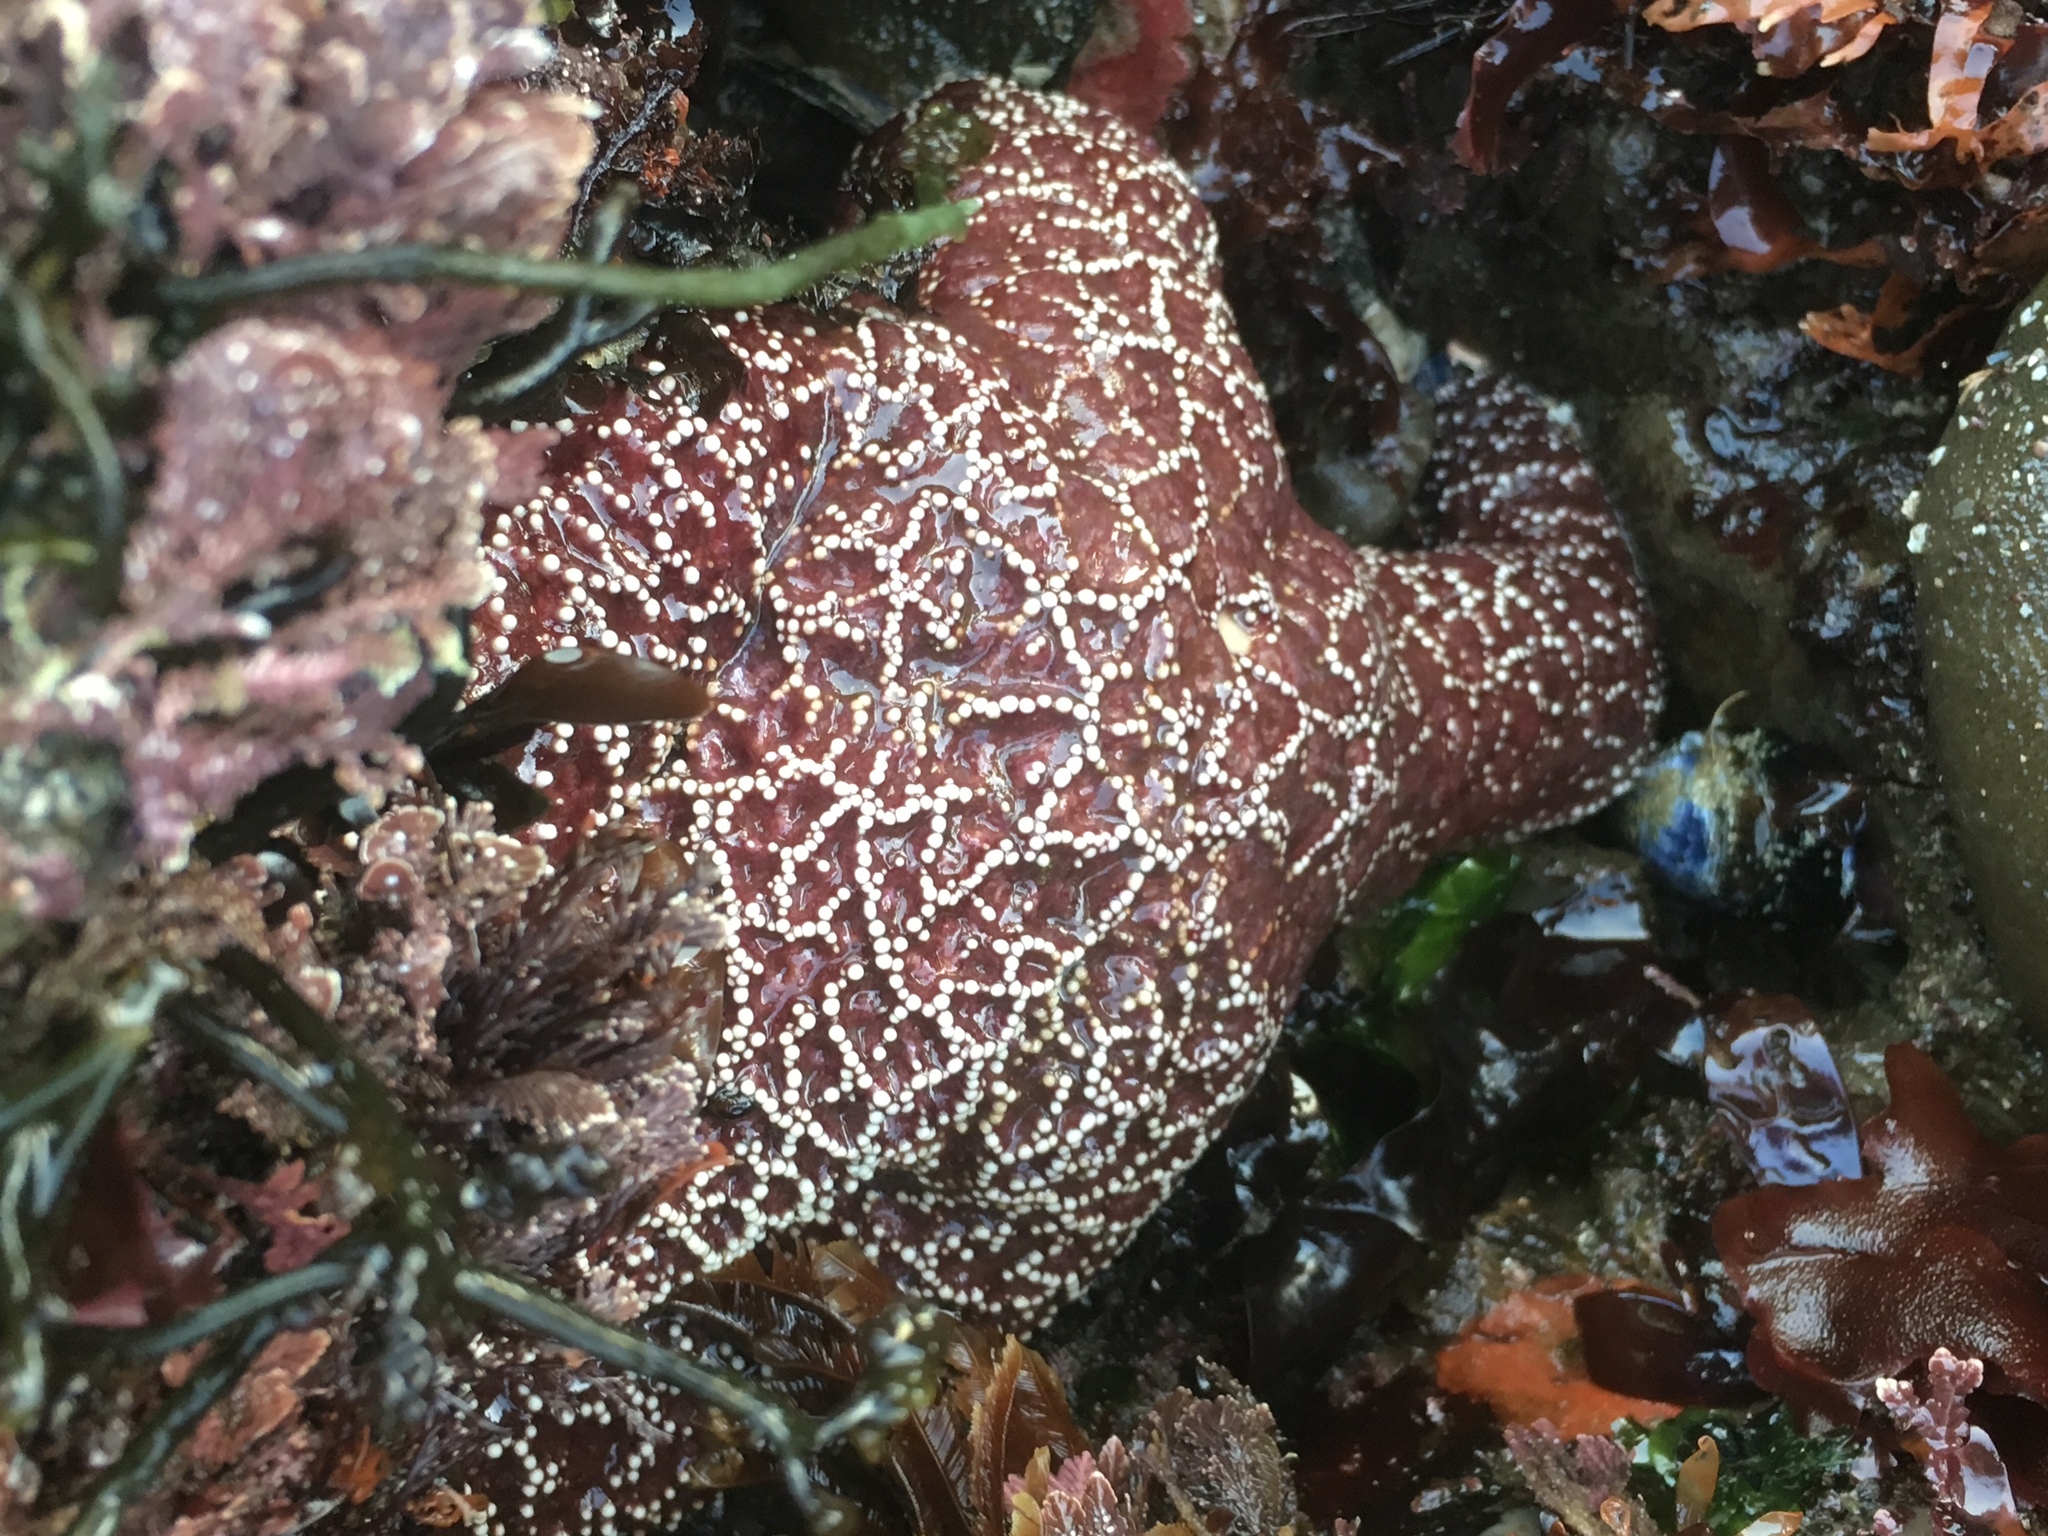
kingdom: Animalia
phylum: Echinodermata
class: Asteroidea
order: Forcipulatida
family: Asteriidae
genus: Pisaster
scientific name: Pisaster ochraceus
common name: Ochre stars
